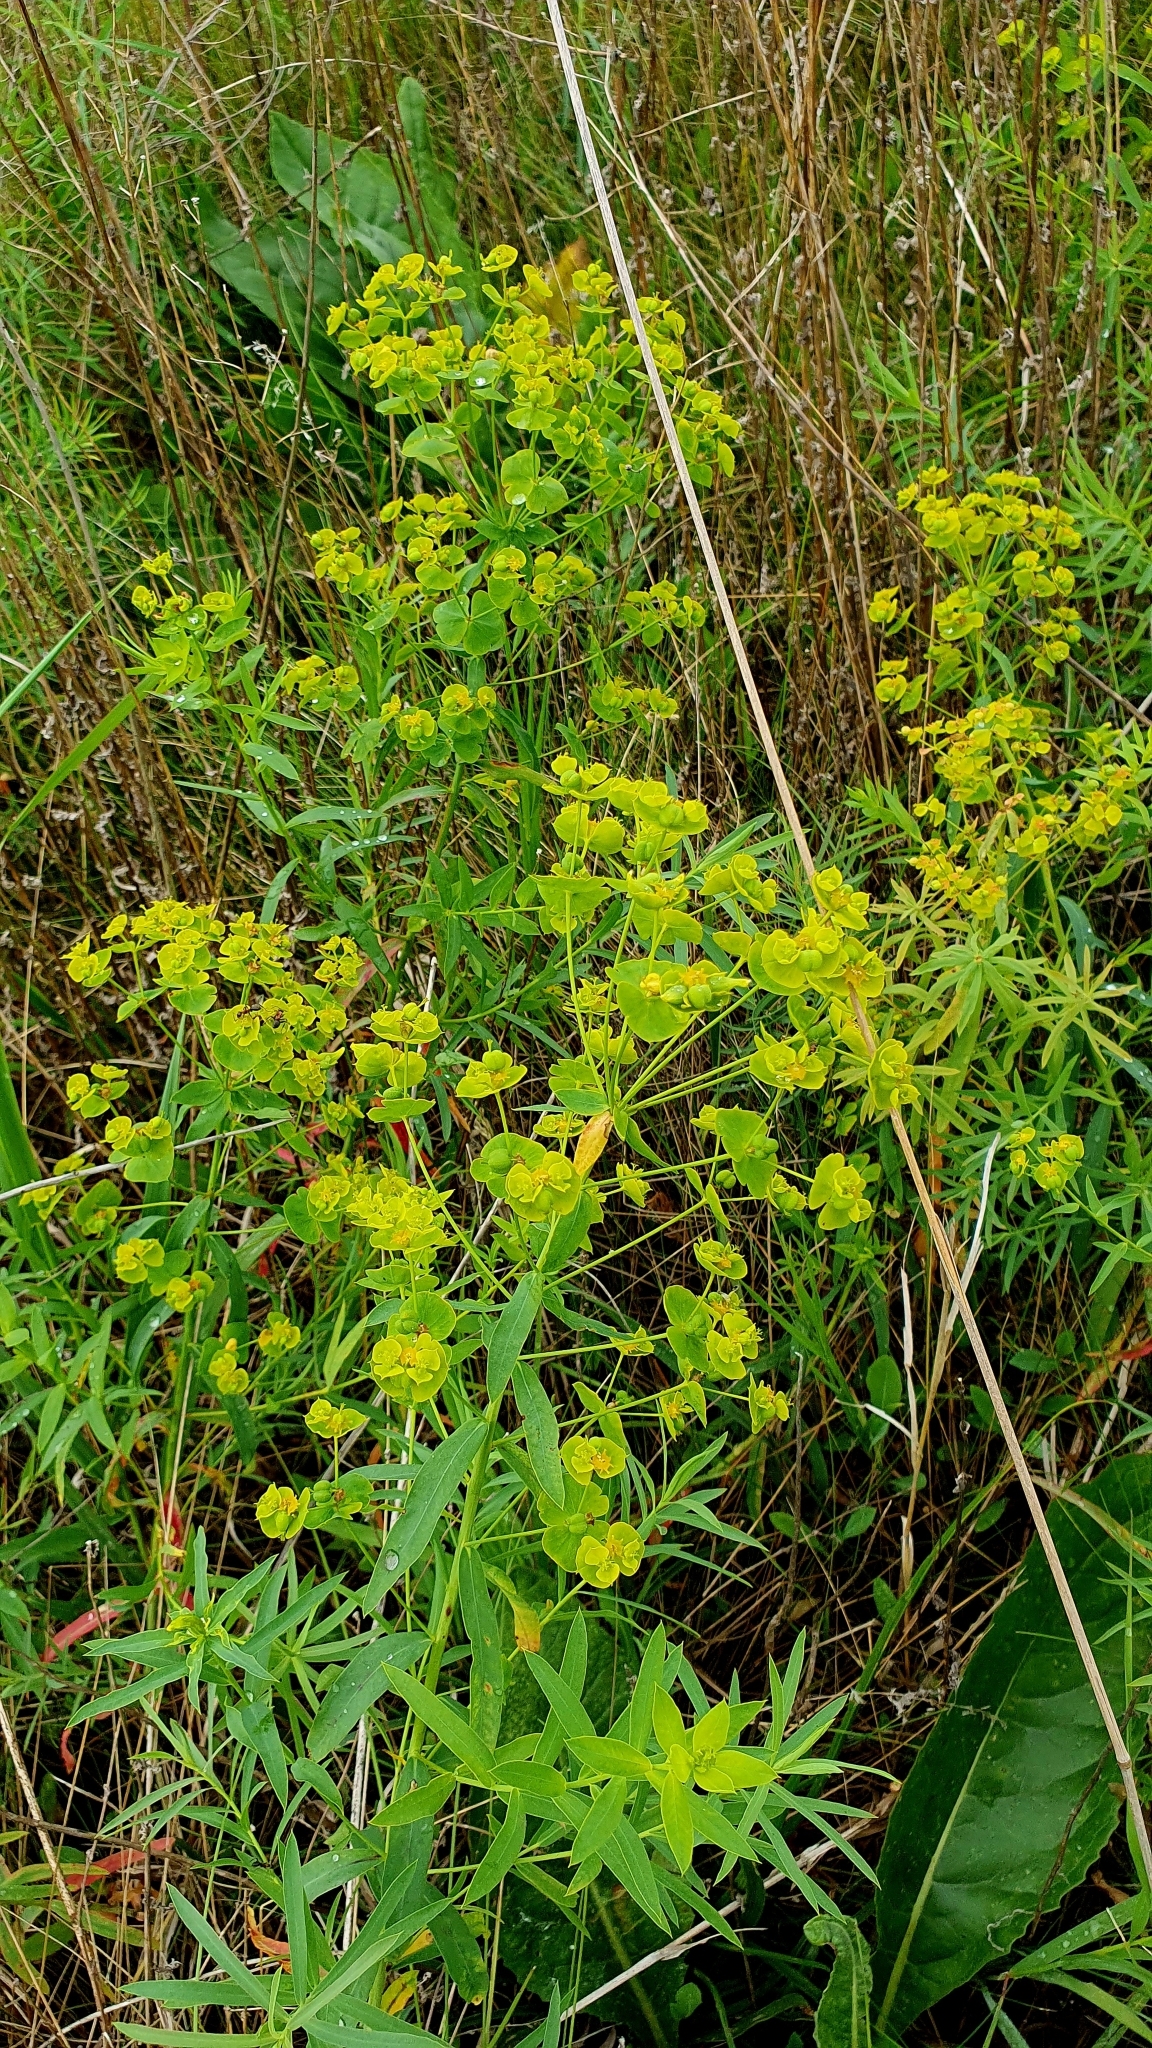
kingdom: Plantae
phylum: Tracheophyta
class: Magnoliopsida
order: Malpighiales
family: Euphorbiaceae
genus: Euphorbia
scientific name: Euphorbia virgata
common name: Leafy spurge
